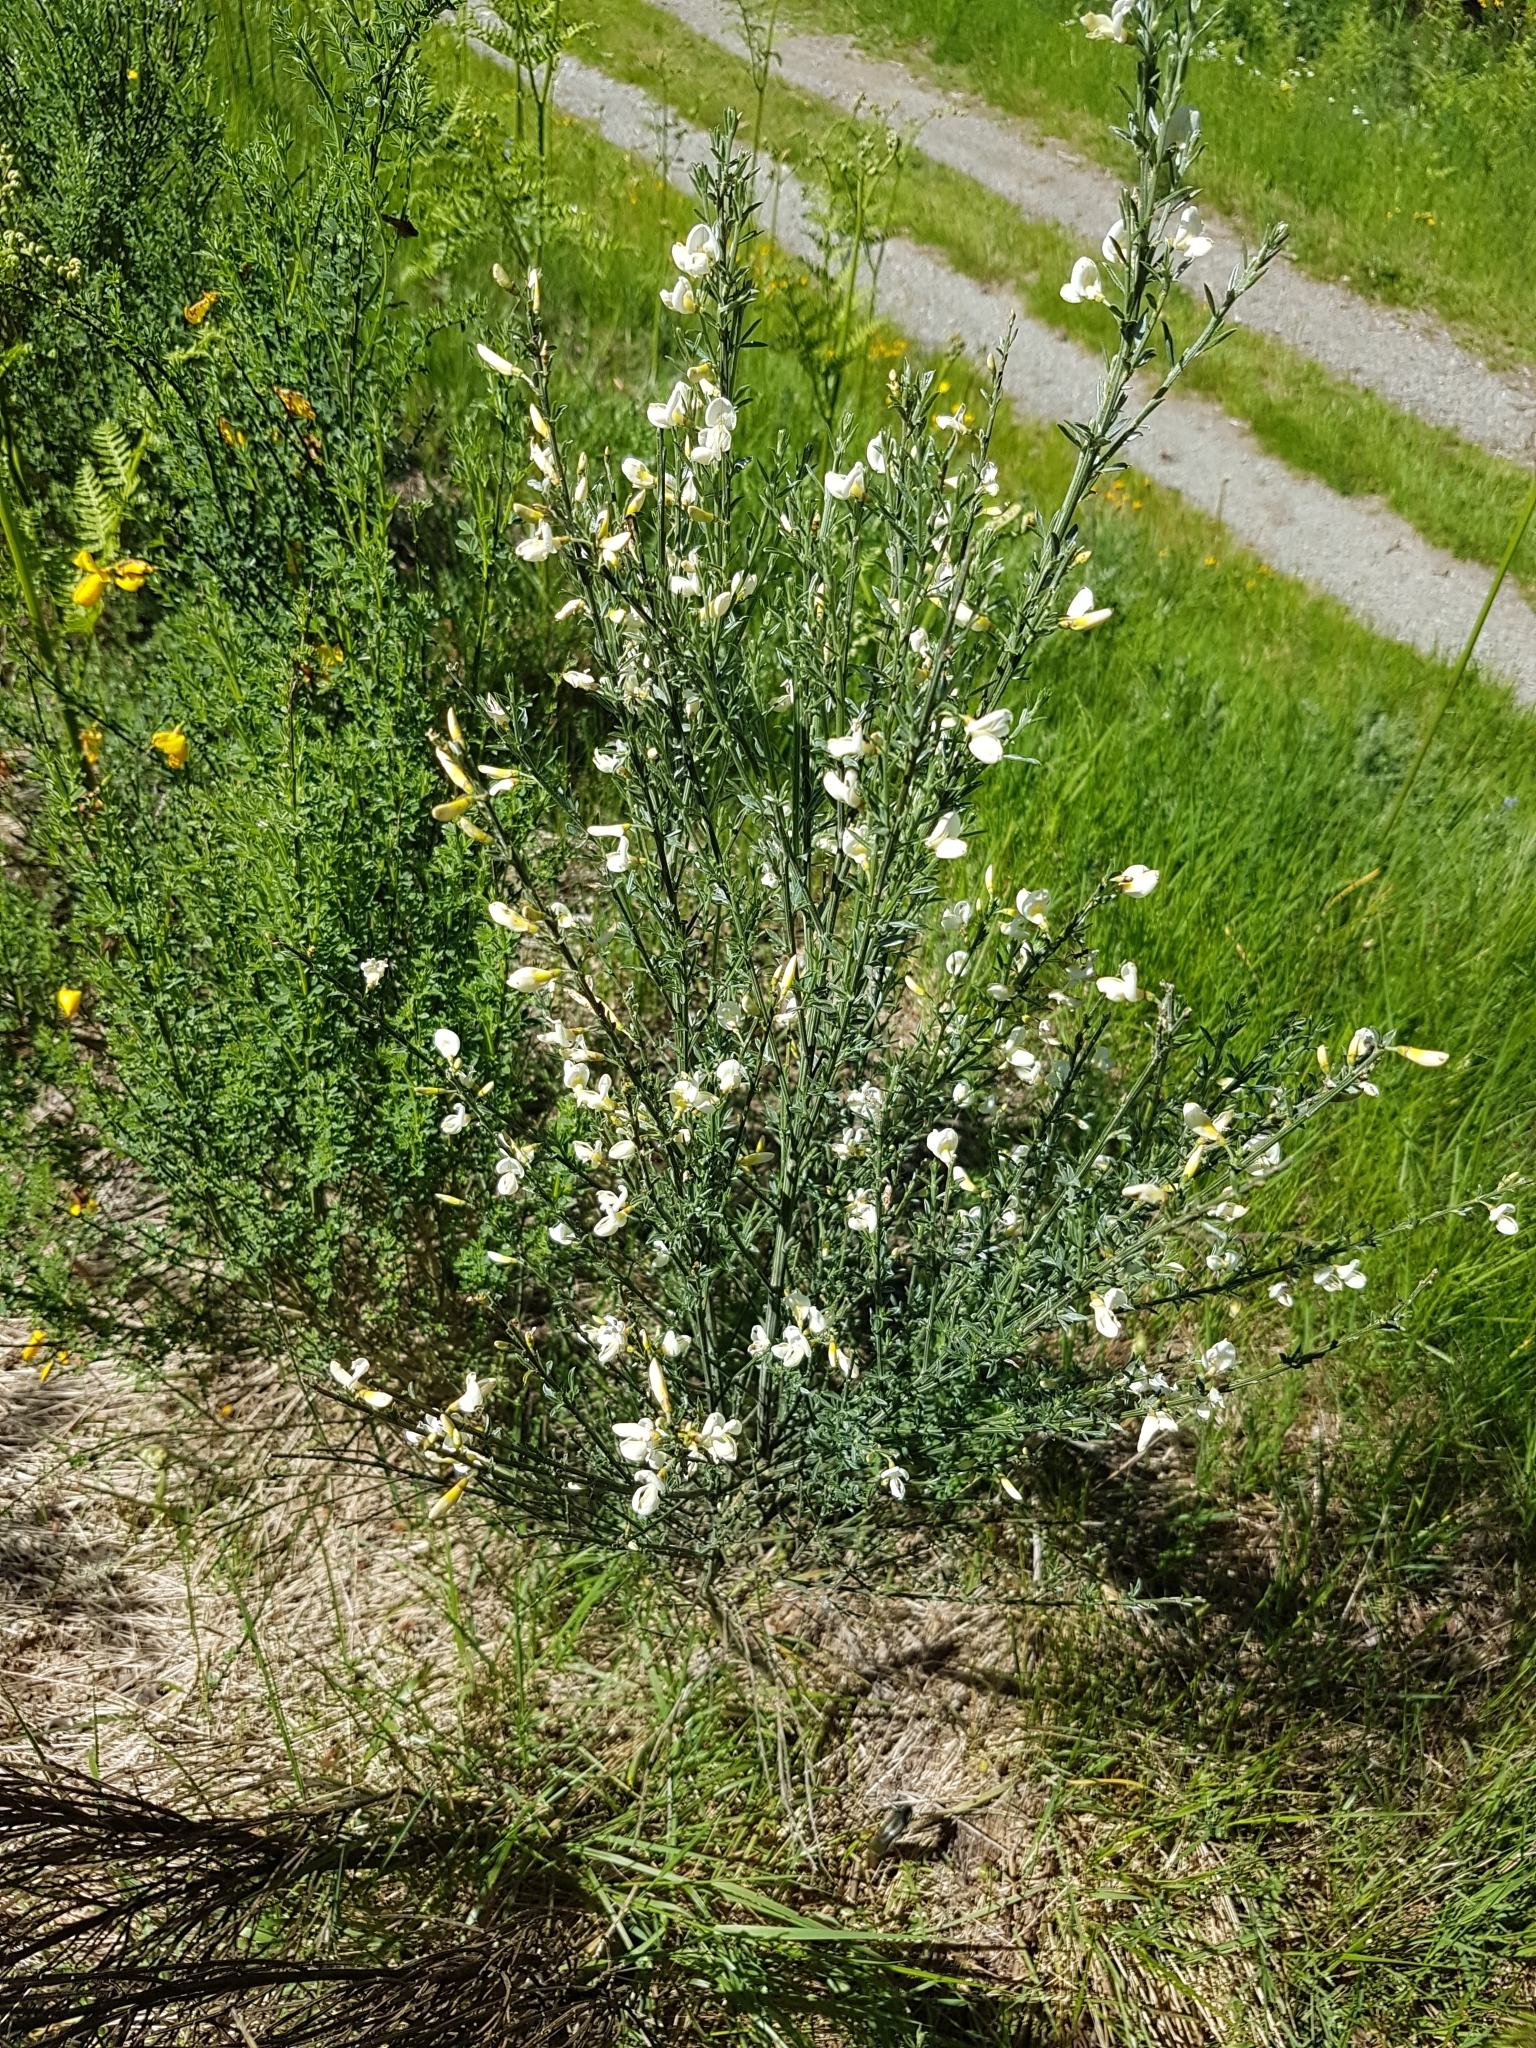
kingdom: Plantae
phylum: Tracheophyta
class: Magnoliopsida
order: Fabales
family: Fabaceae
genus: Cytisus
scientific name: Cytisus multiflorus
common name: White broom
